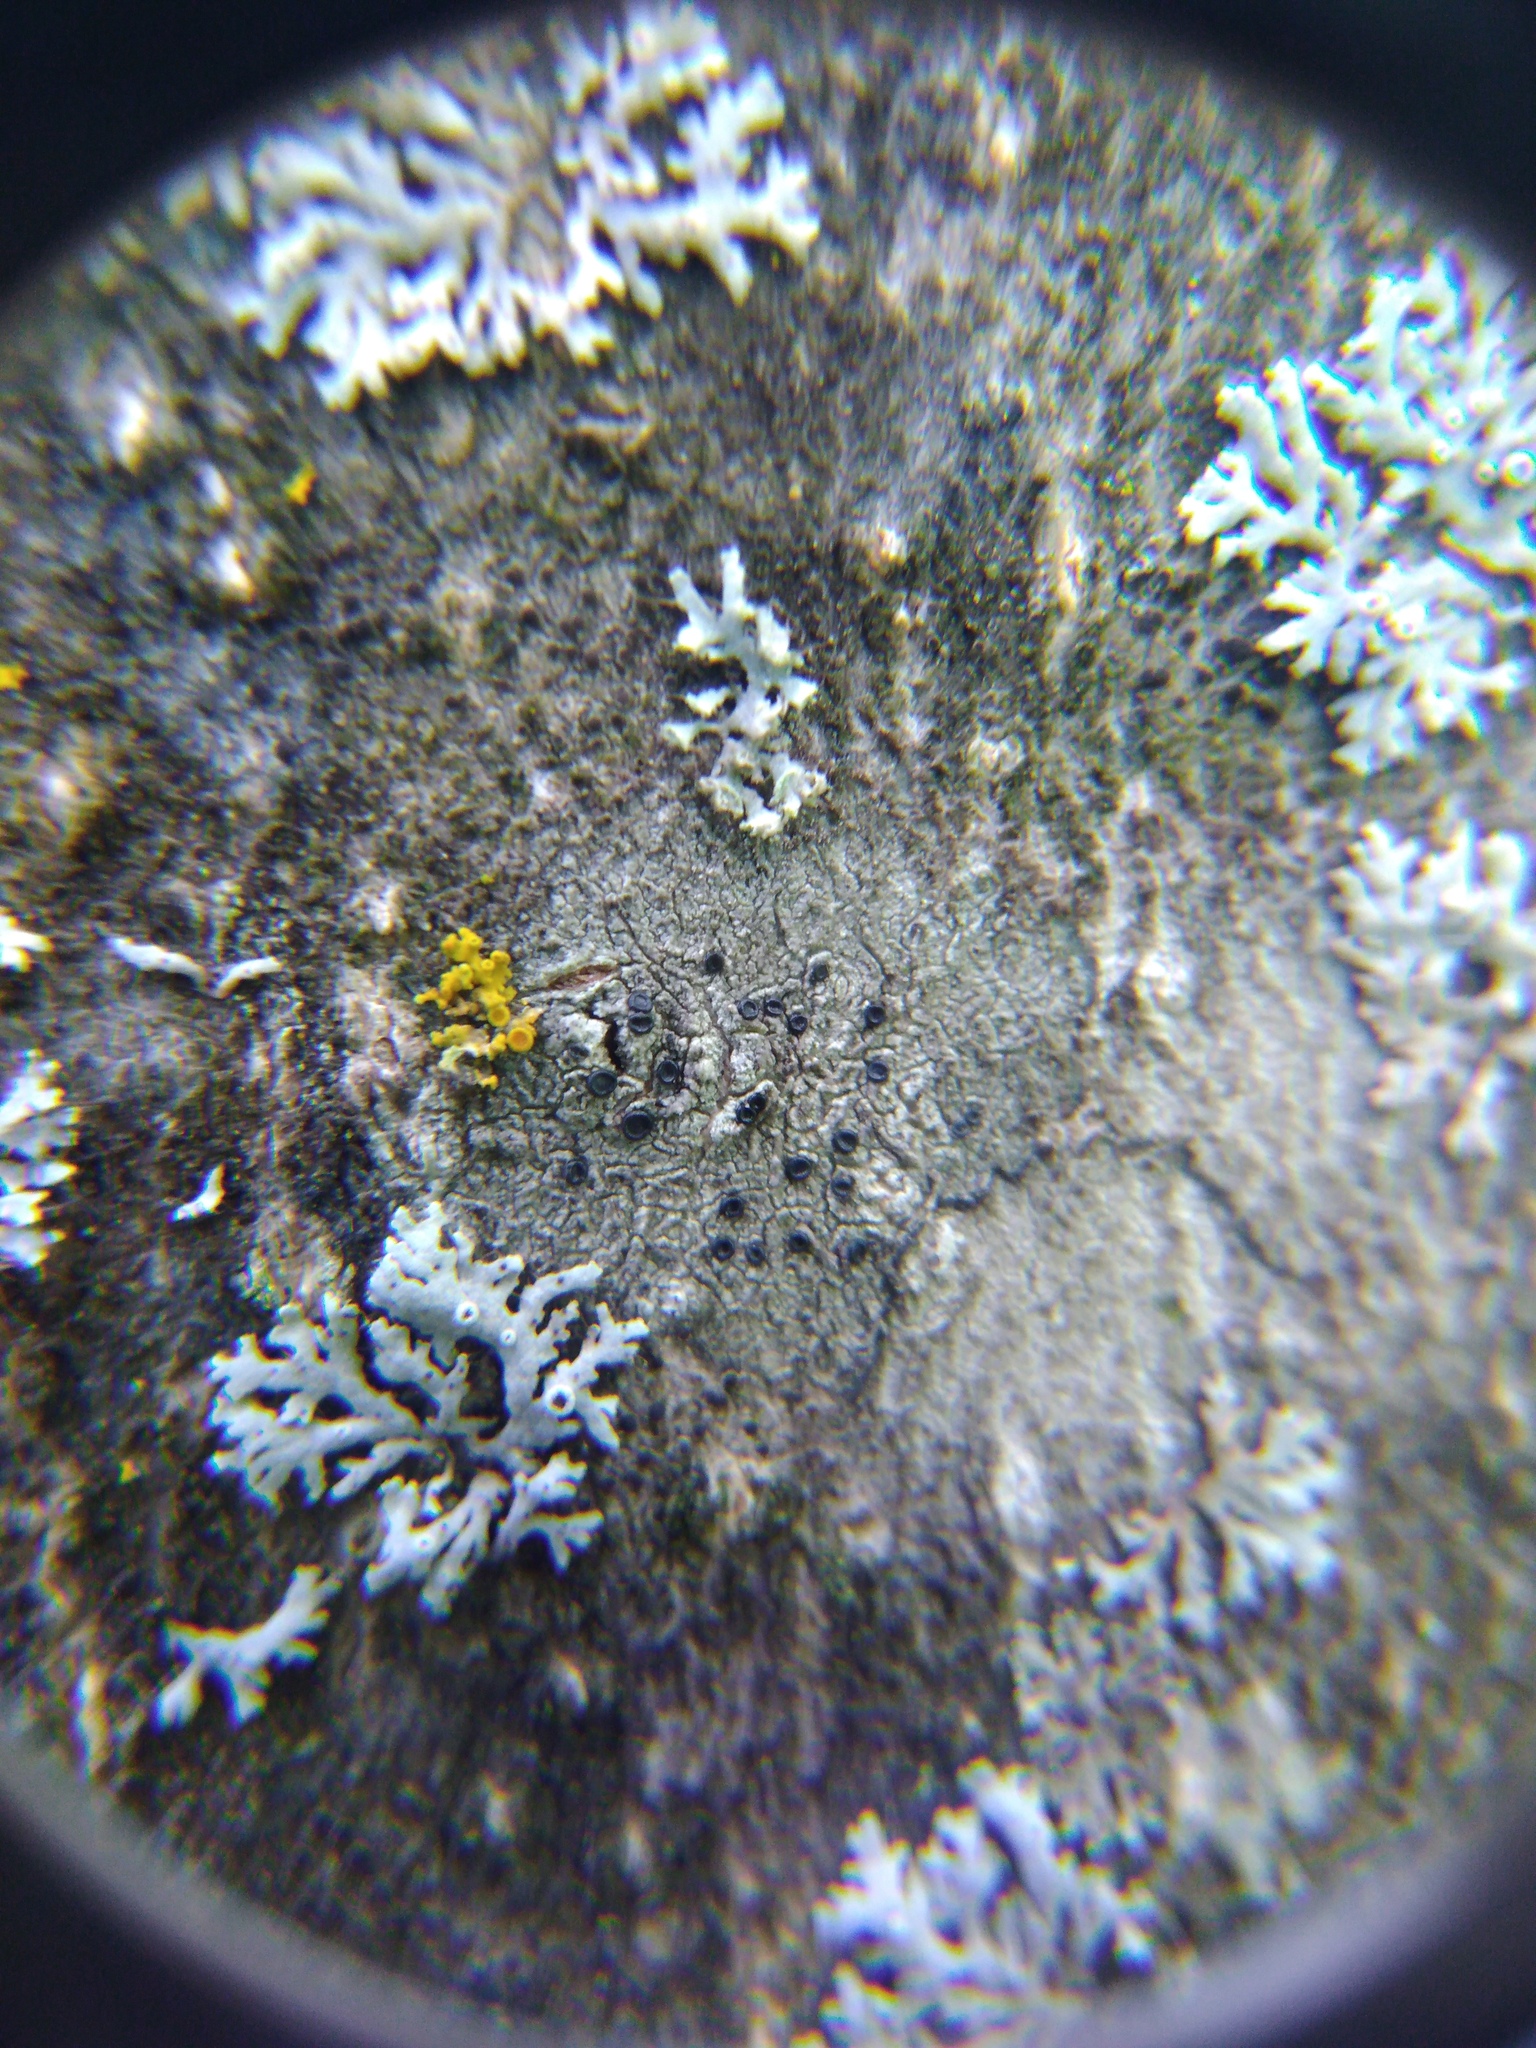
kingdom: Fungi
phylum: Ascomycota
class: Lecanoromycetes
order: Lecanorales
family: Lecanoraceae
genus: Lecidella
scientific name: Lecidella elaeochroma
